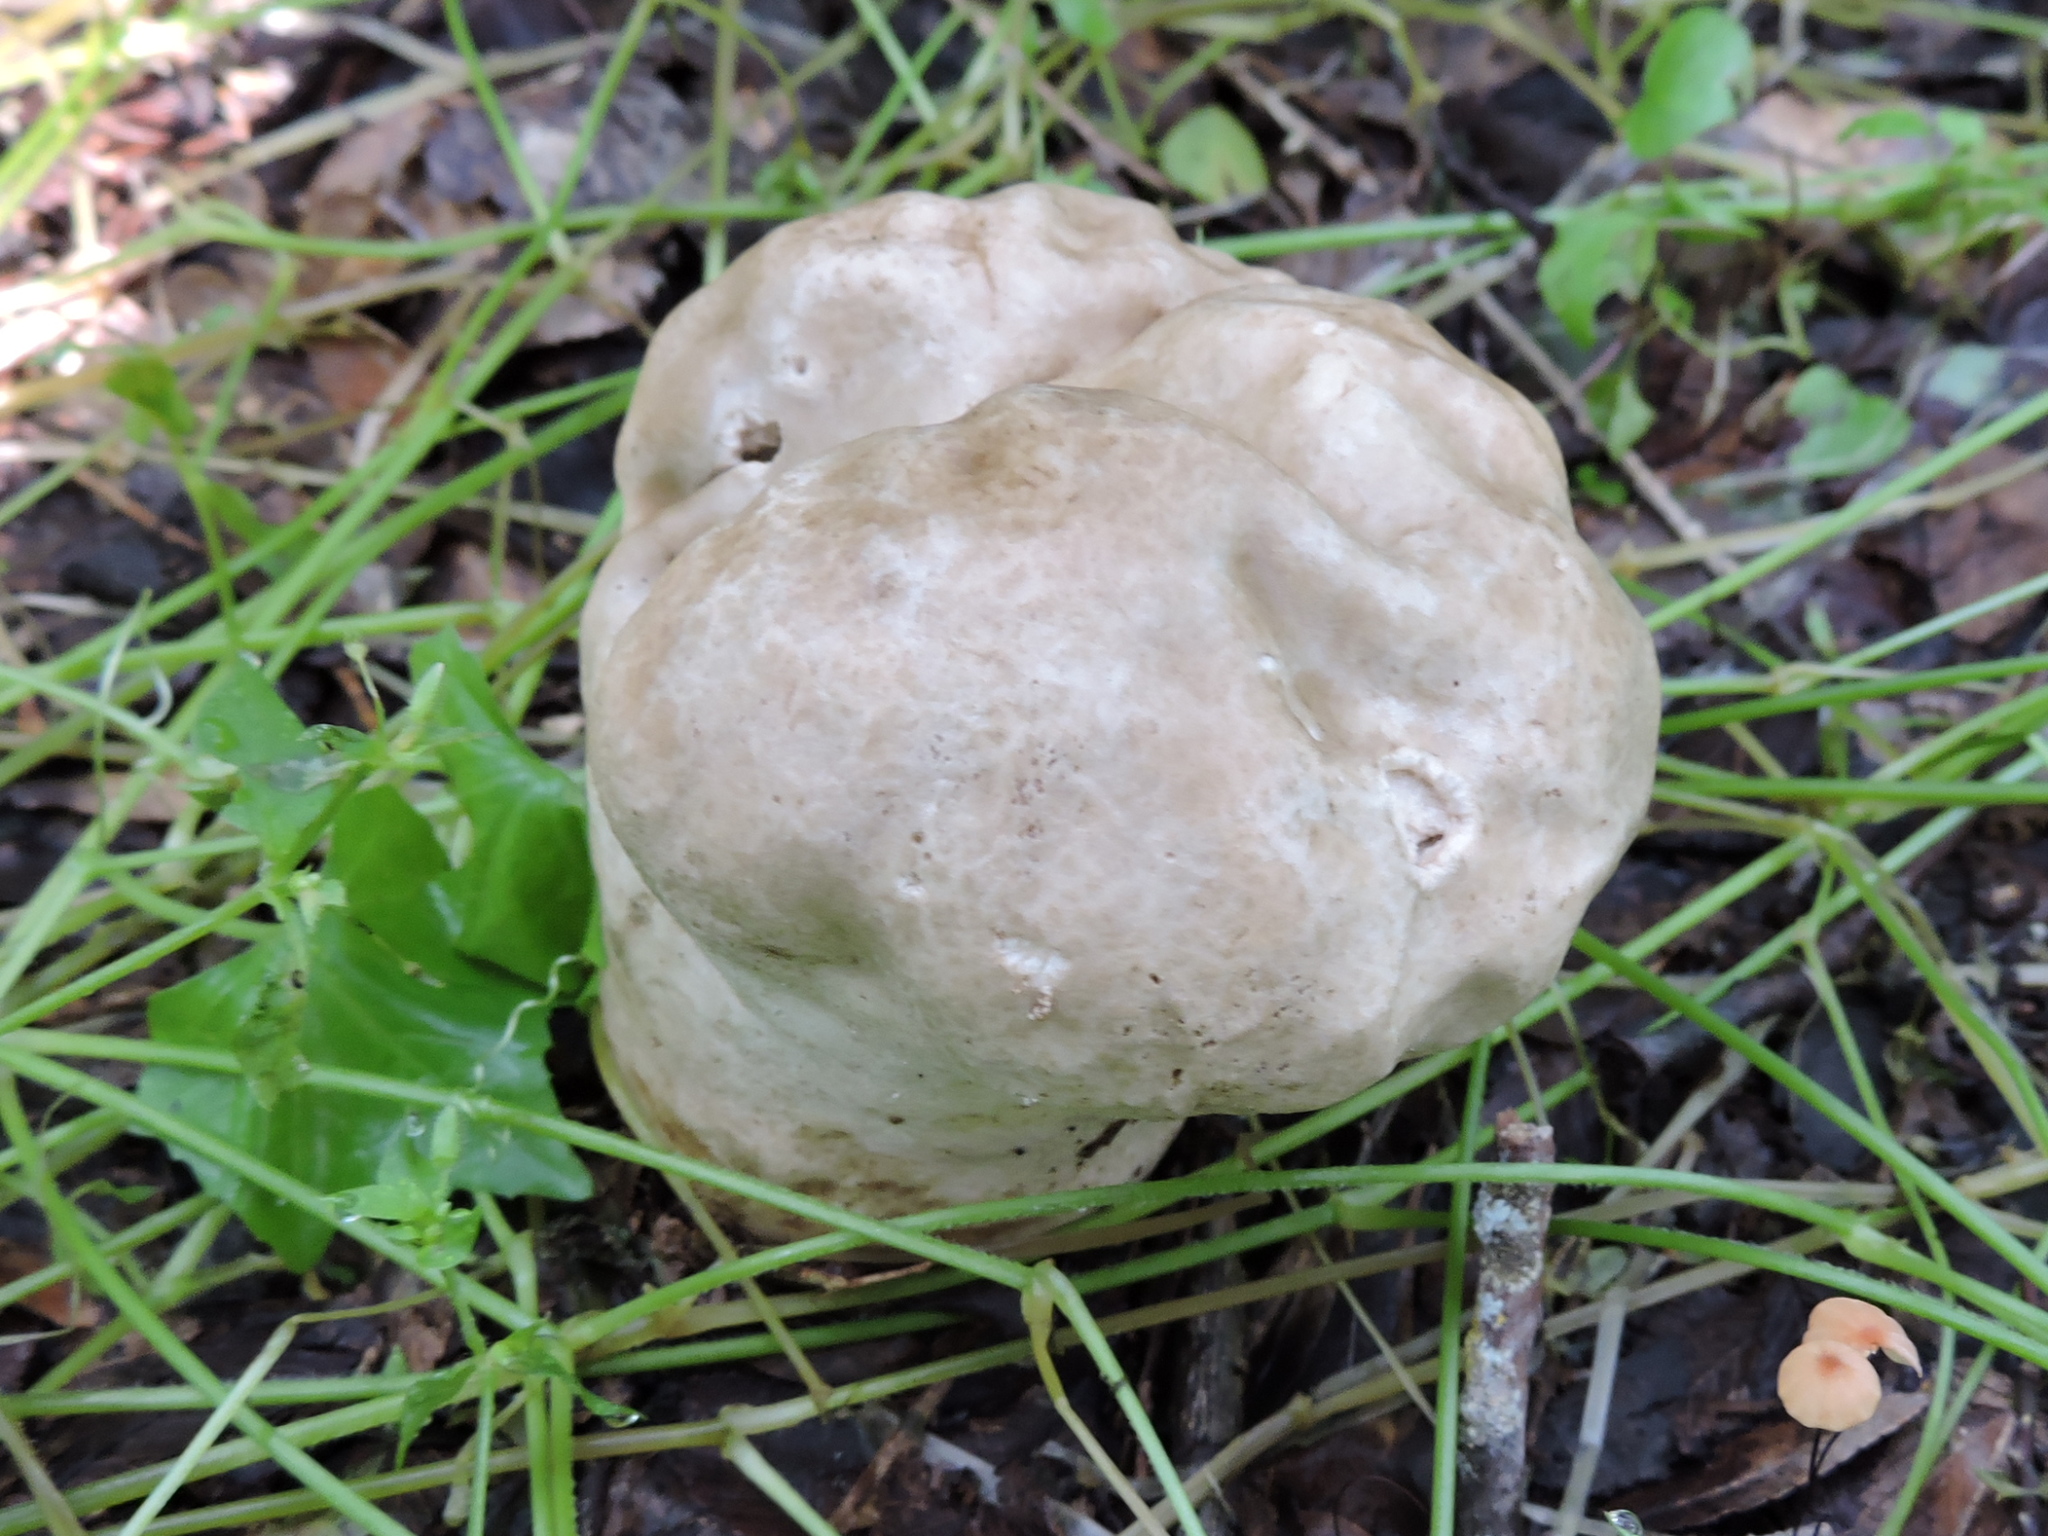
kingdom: Fungi
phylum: Basidiomycota
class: Agaricomycetes
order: Agaricales
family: Lycoperdaceae
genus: Calvatia
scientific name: Calvatia craniiformis
